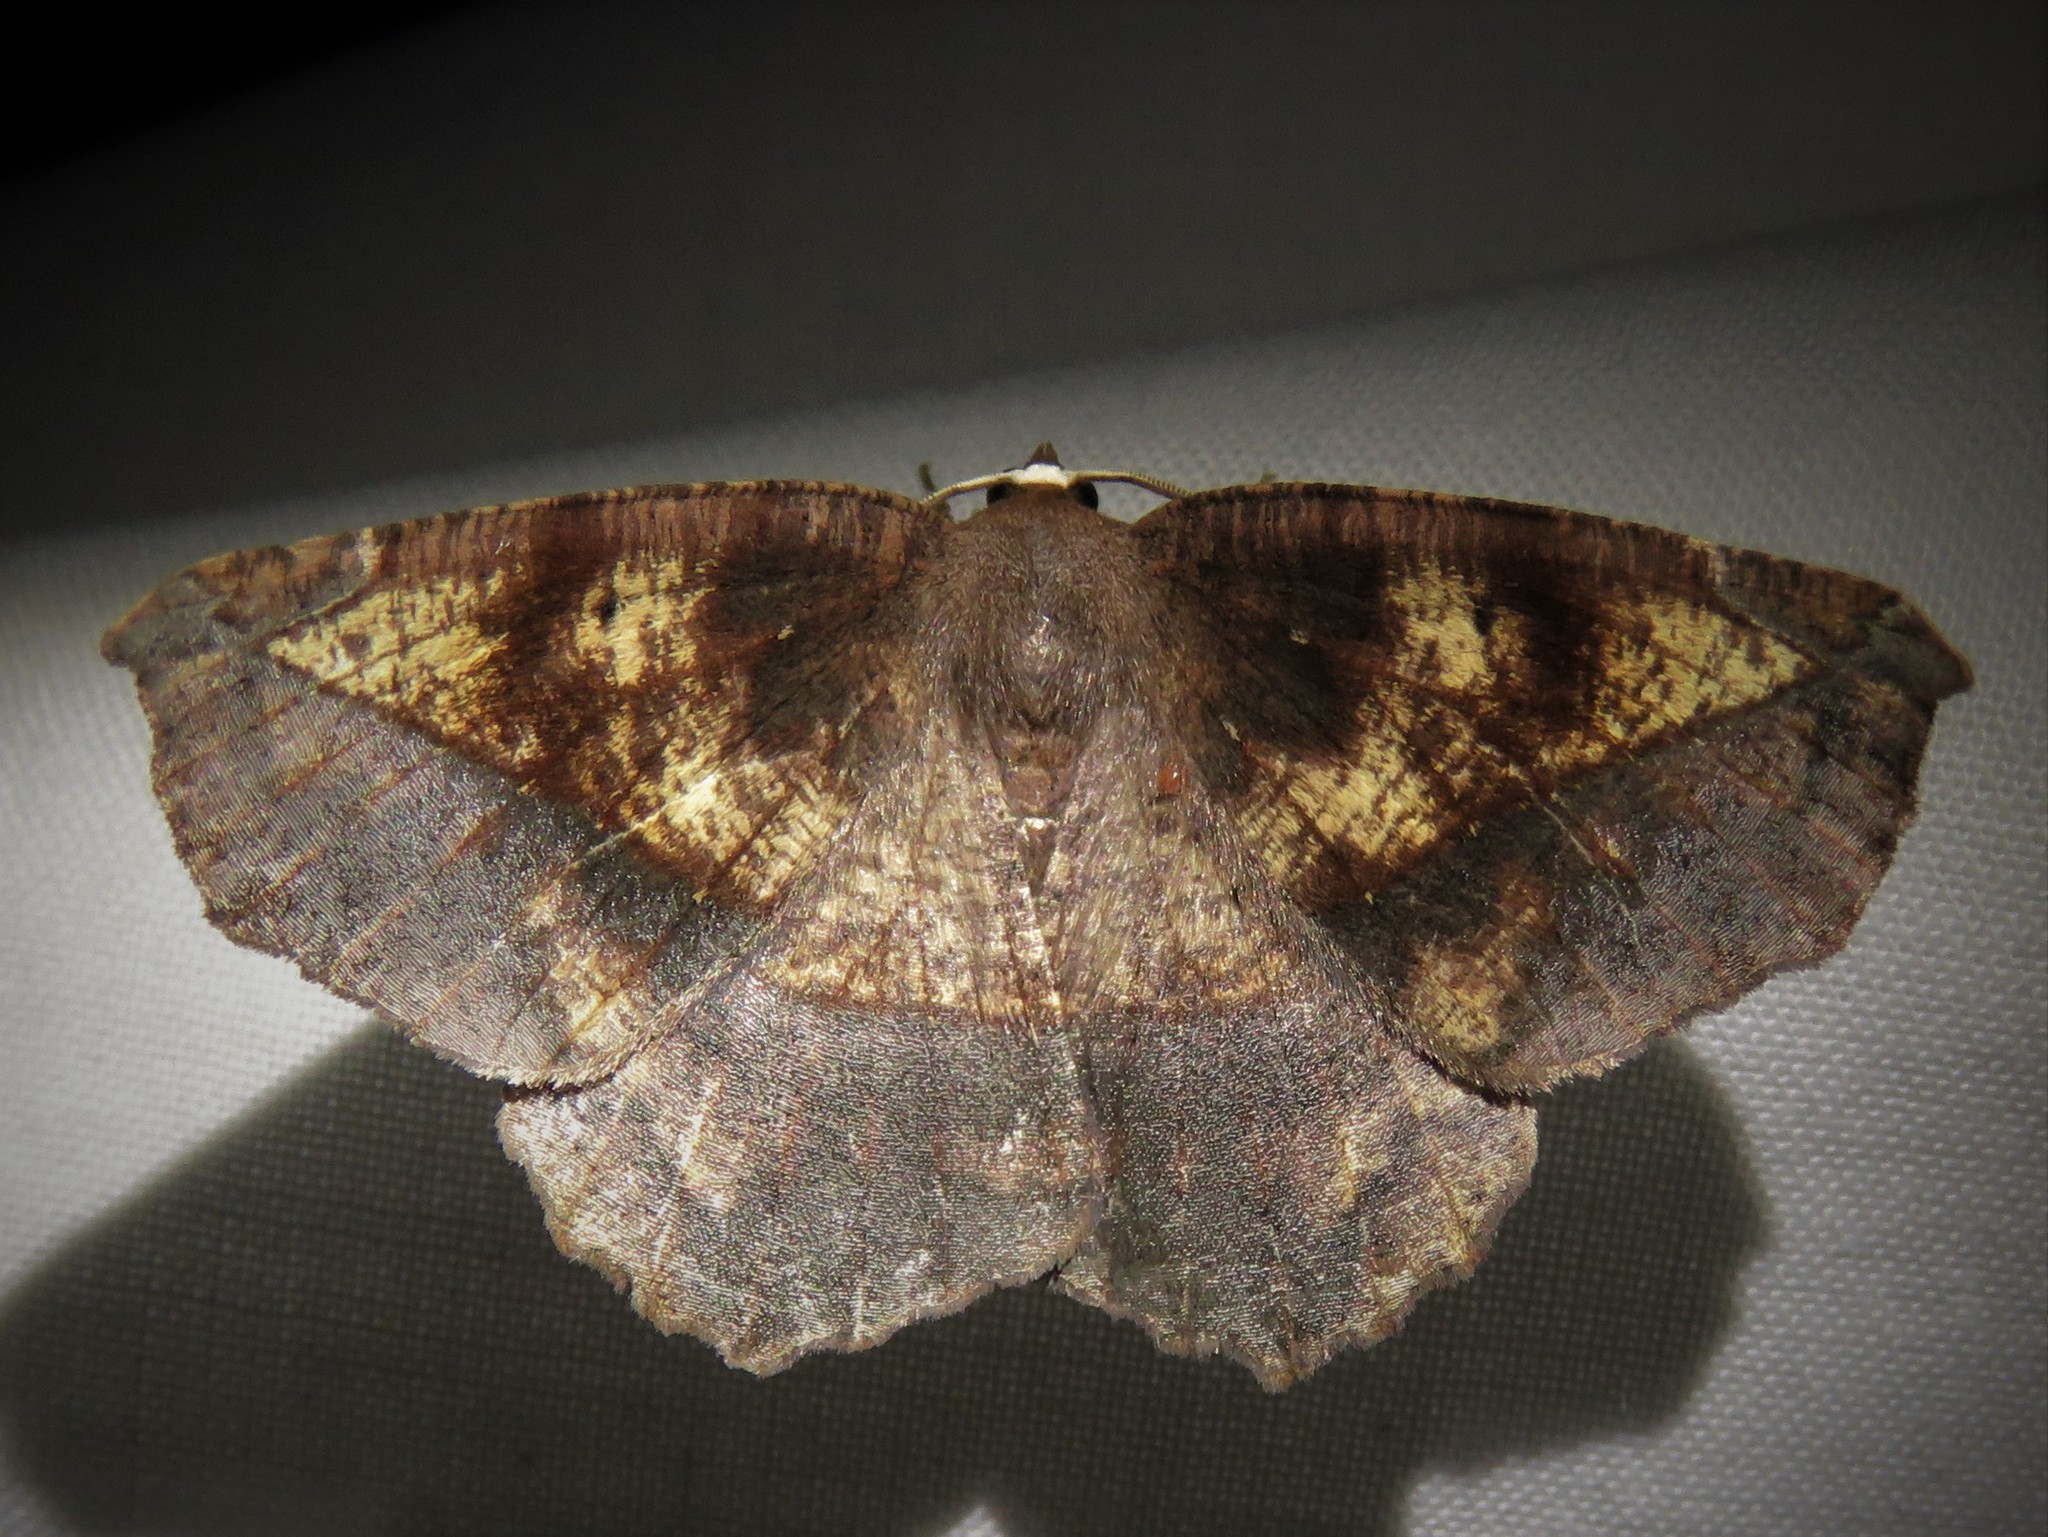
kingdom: Animalia
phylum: Arthropoda
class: Insecta
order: Lepidoptera
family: Geometridae
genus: Eutrapela
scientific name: Eutrapela clemataria
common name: Curved-toothed geometer
